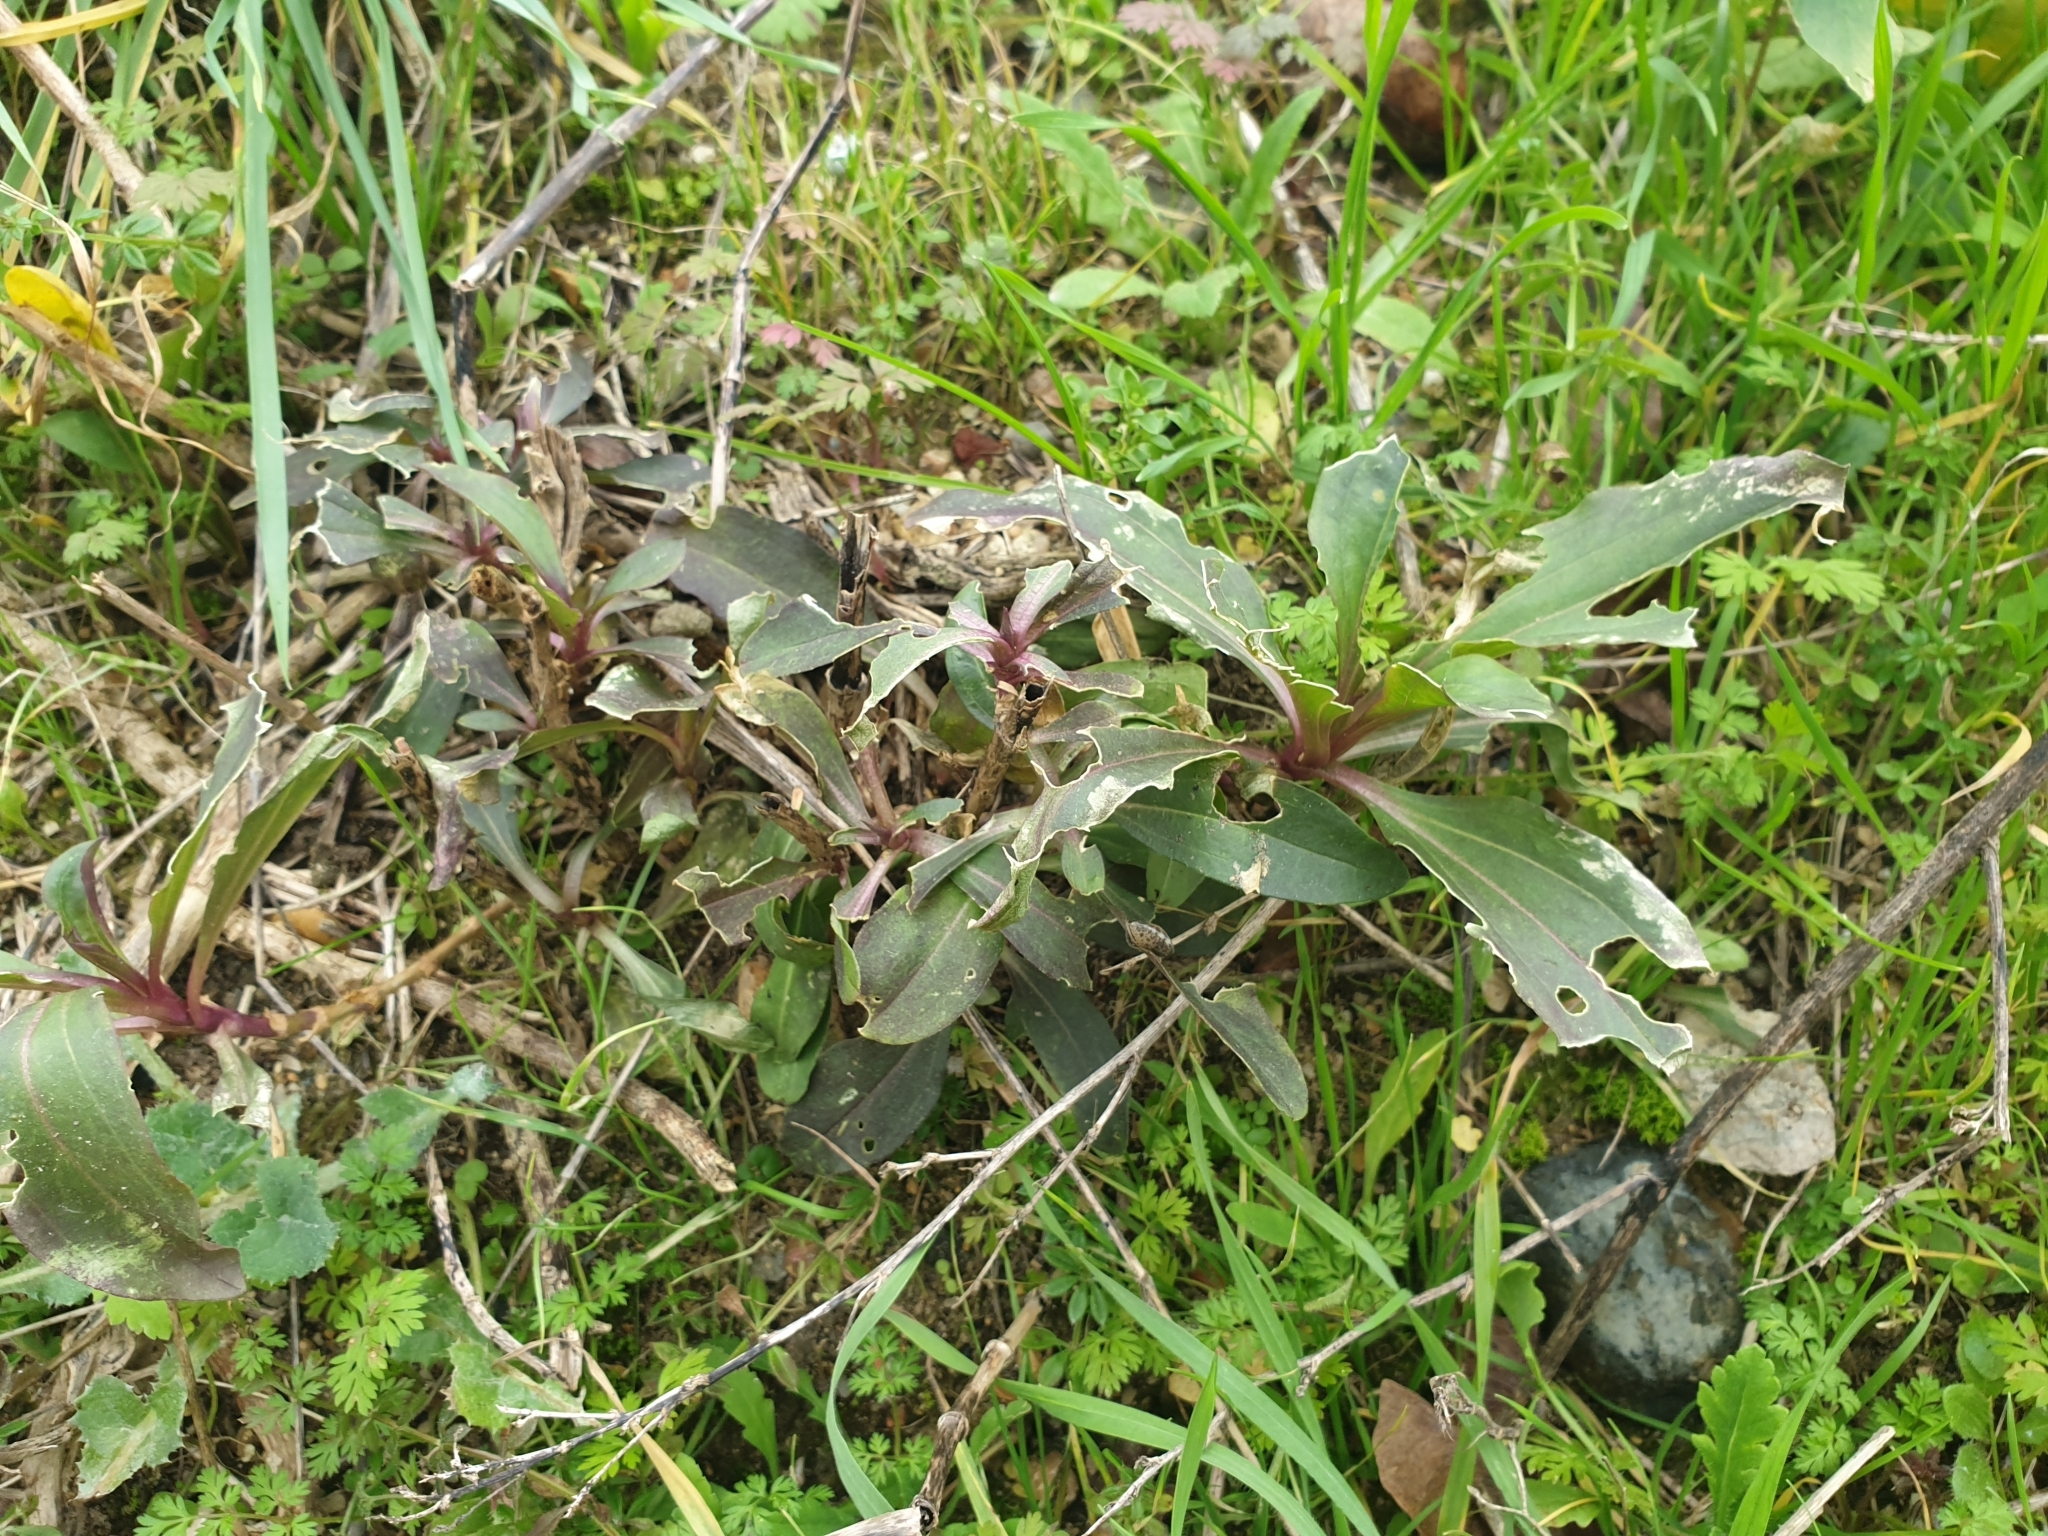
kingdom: Plantae
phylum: Tracheophyta
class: Magnoliopsida
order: Caryophyllales
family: Caryophyllaceae
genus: Saponaria
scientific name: Saponaria officinalis
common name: Soapwort
